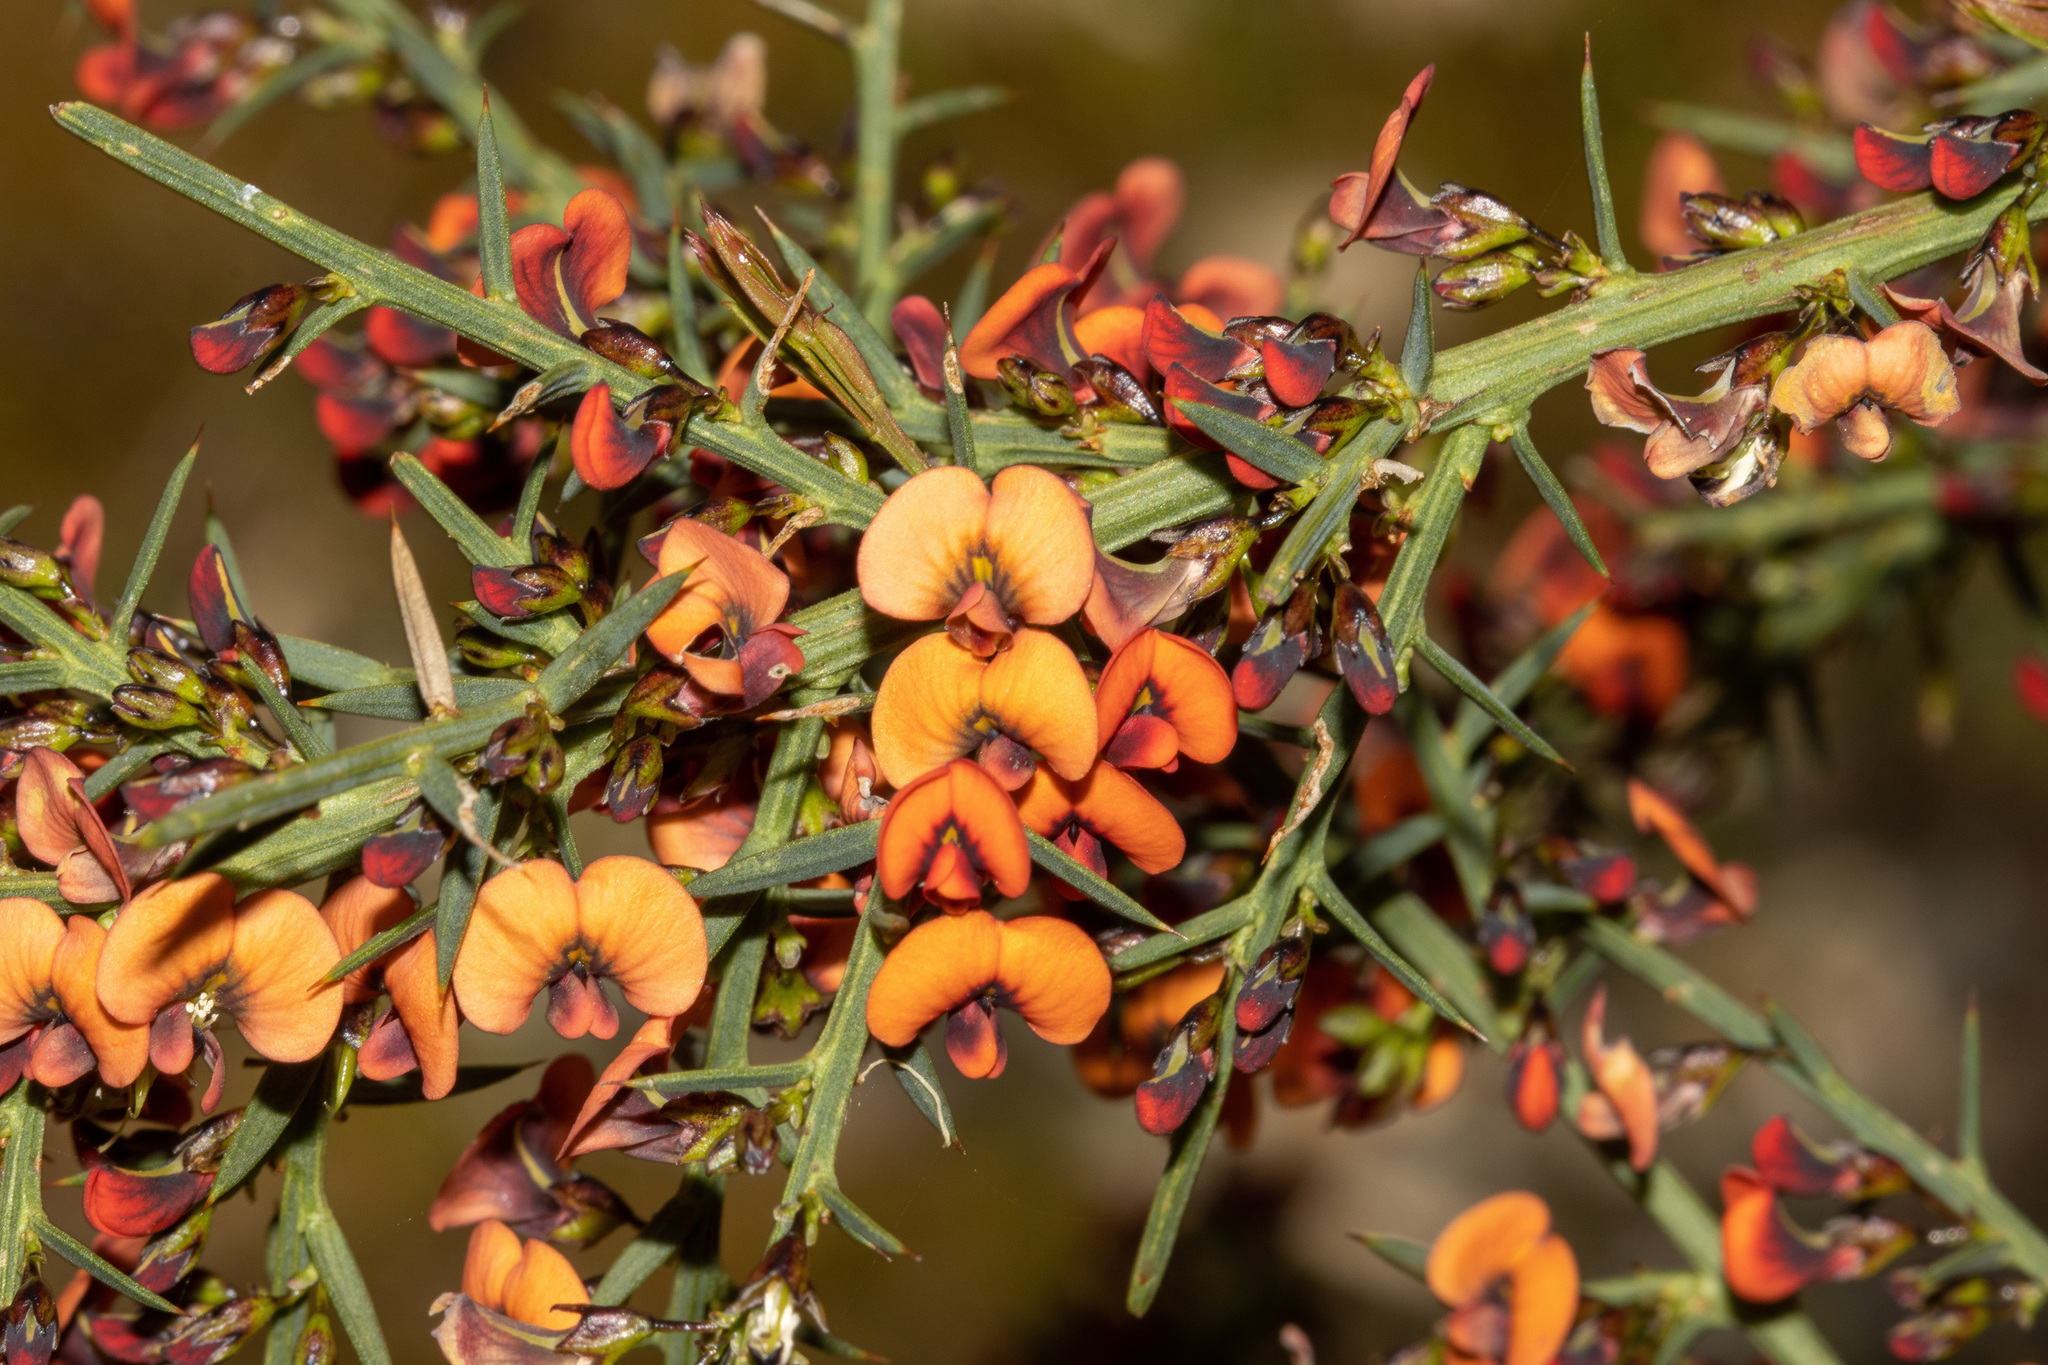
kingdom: Plantae
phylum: Tracheophyta
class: Magnoliopsida
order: Fabales
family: Fabaceae
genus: Daviesia
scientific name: Daviesia ulicifolia
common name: Gorse bitter-pea
